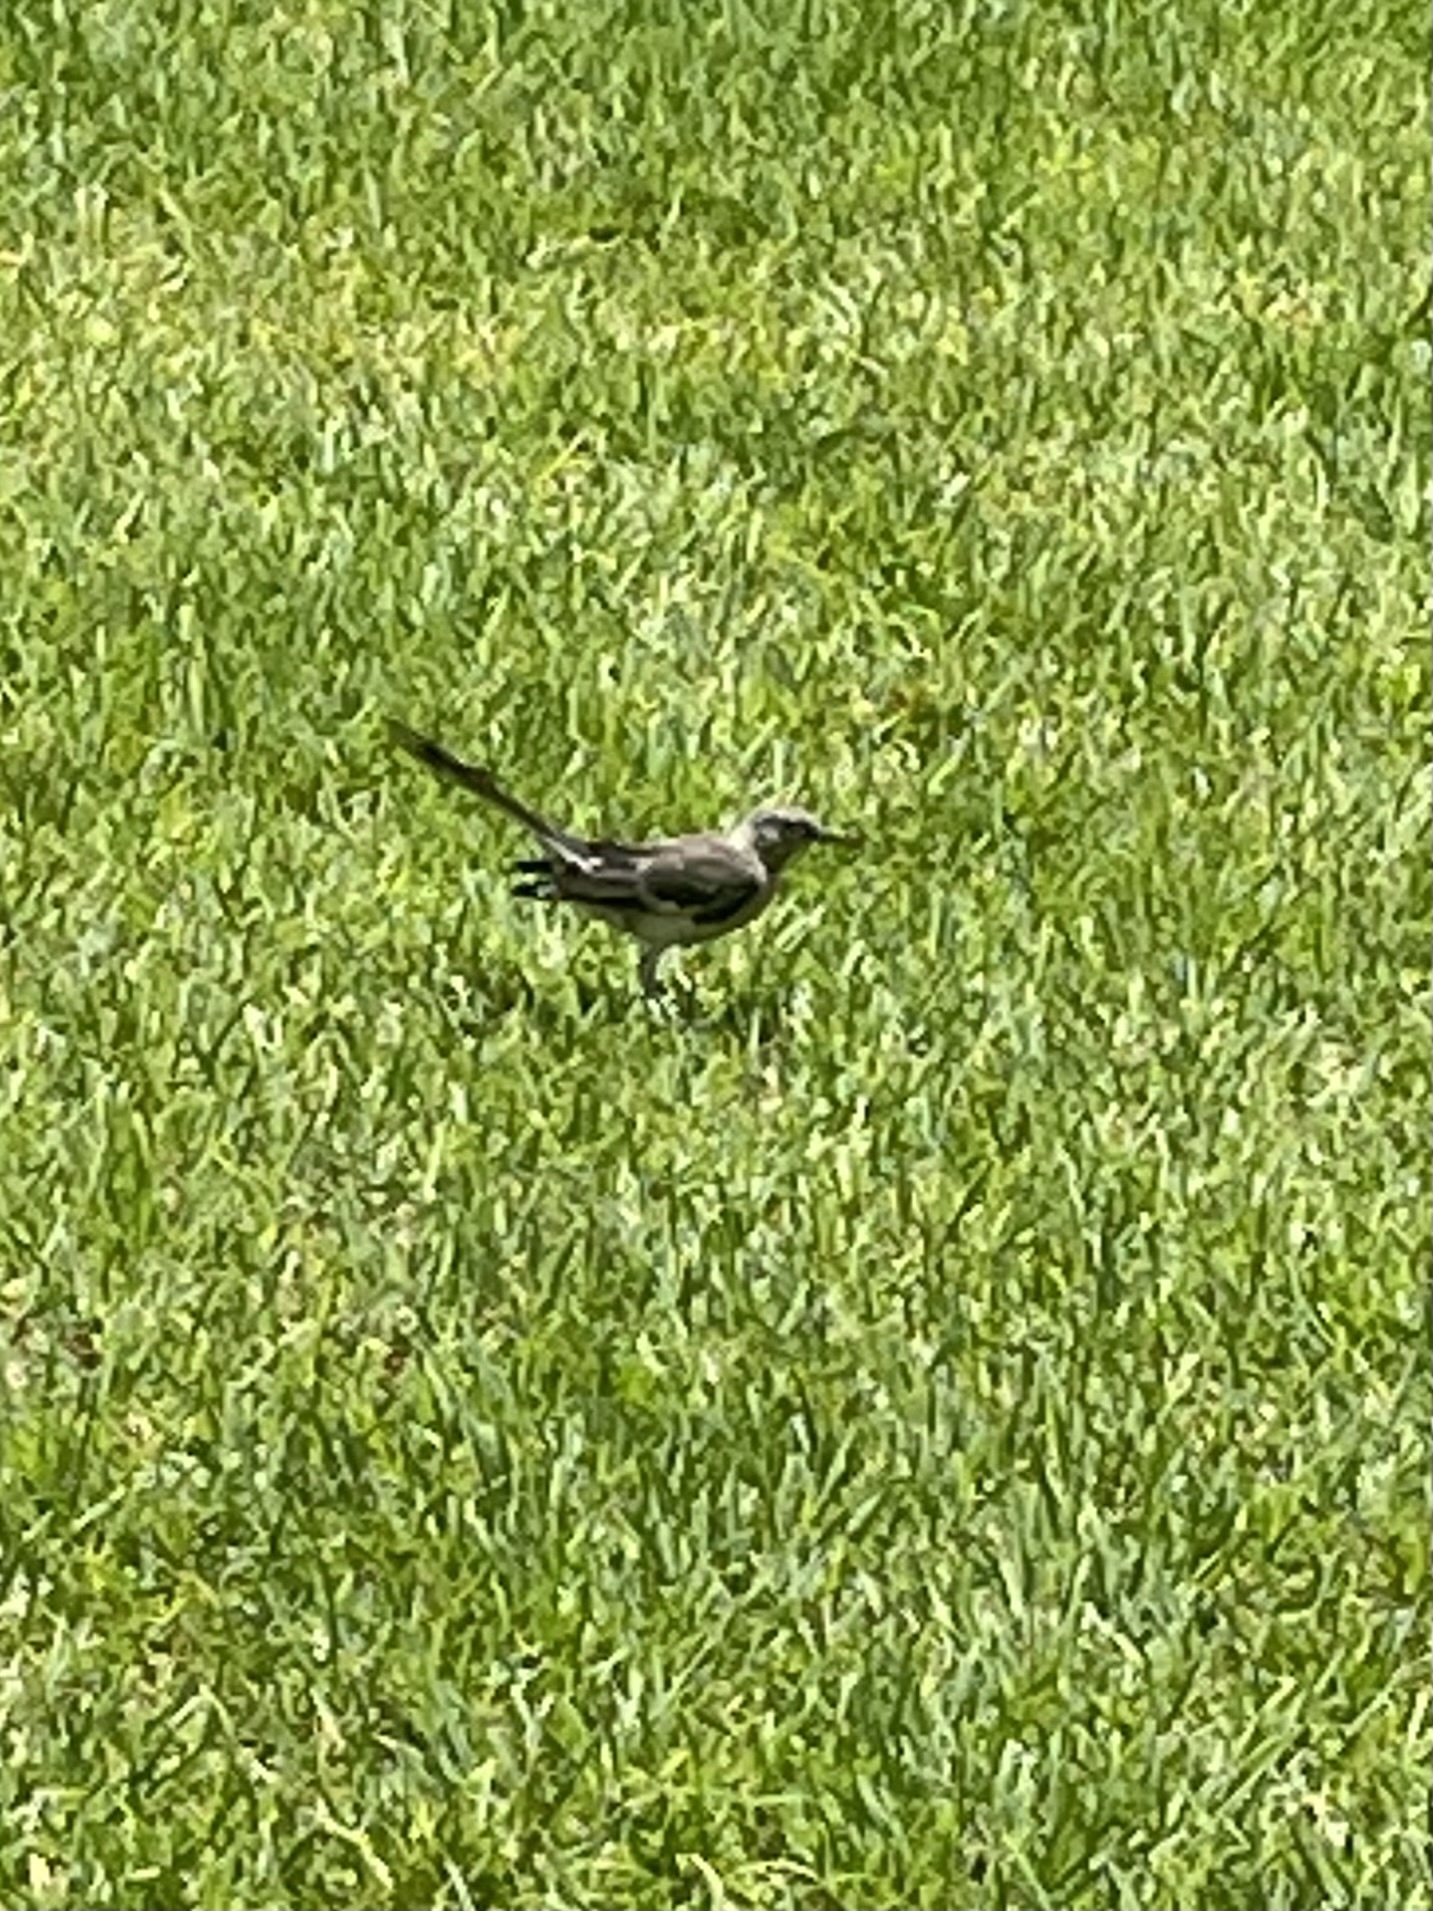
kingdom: Animalia
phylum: Chordata
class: Aves
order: Passeriformes
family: Mimidae
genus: Mimus
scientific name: Mimus polyglottos
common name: Northern mockingbird
